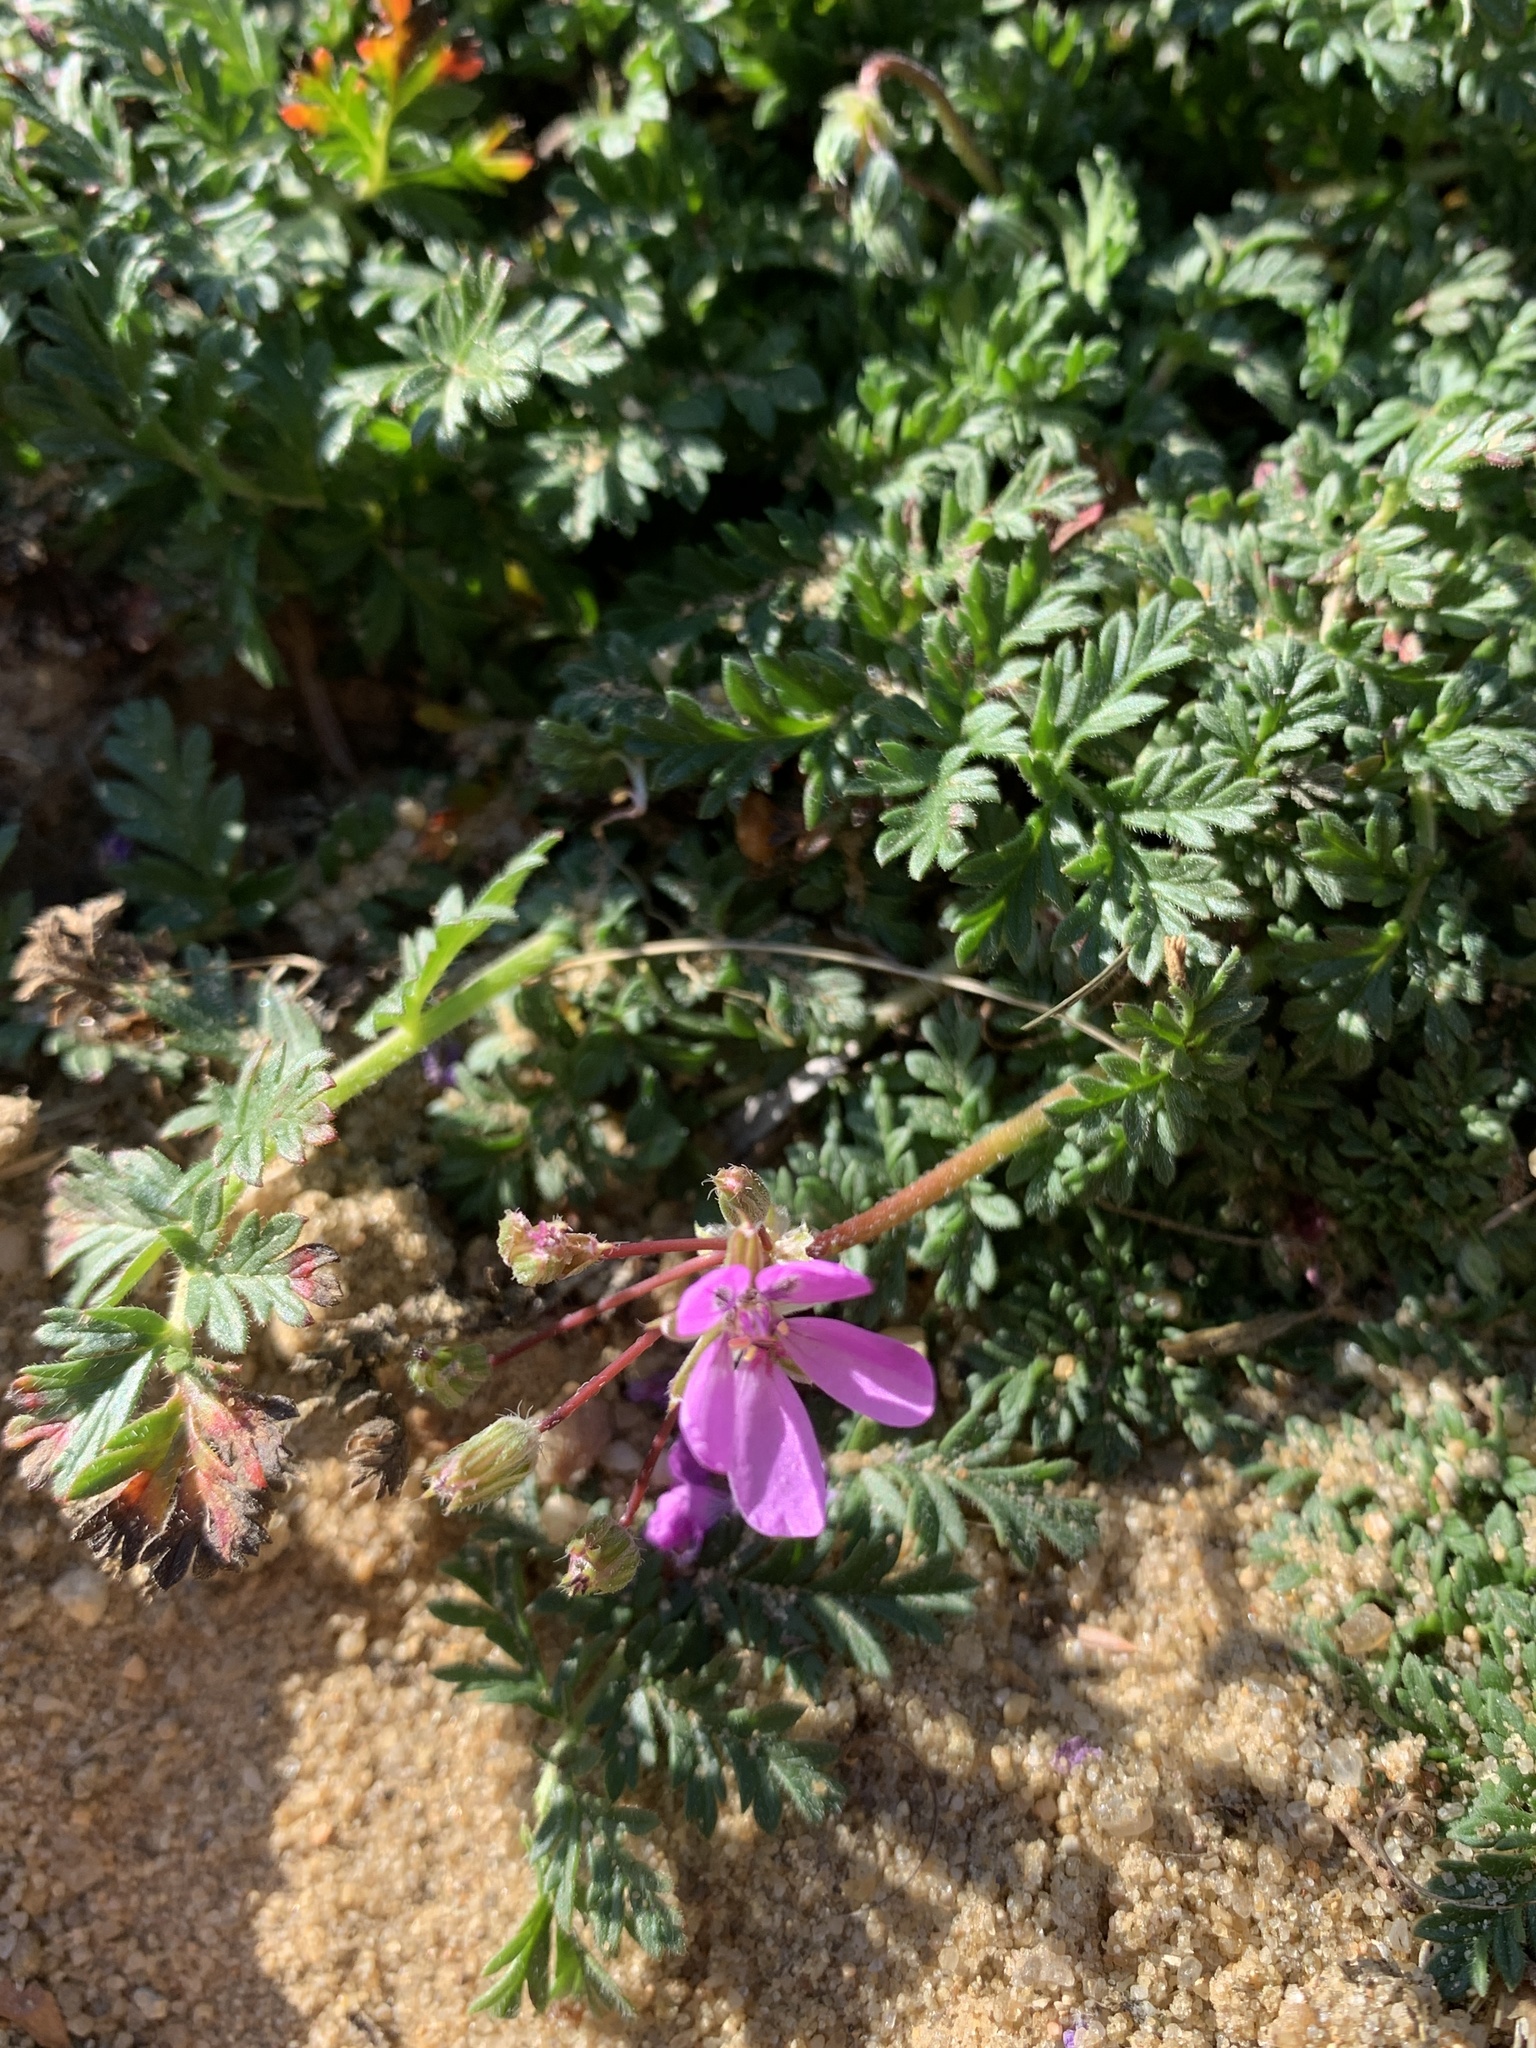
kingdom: Plantae
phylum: Tracheophyta
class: Magnoliopsida
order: Geraniales
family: Geraniaceae
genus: Erodium
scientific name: Erodium cicutarium
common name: Common stork's-bill
